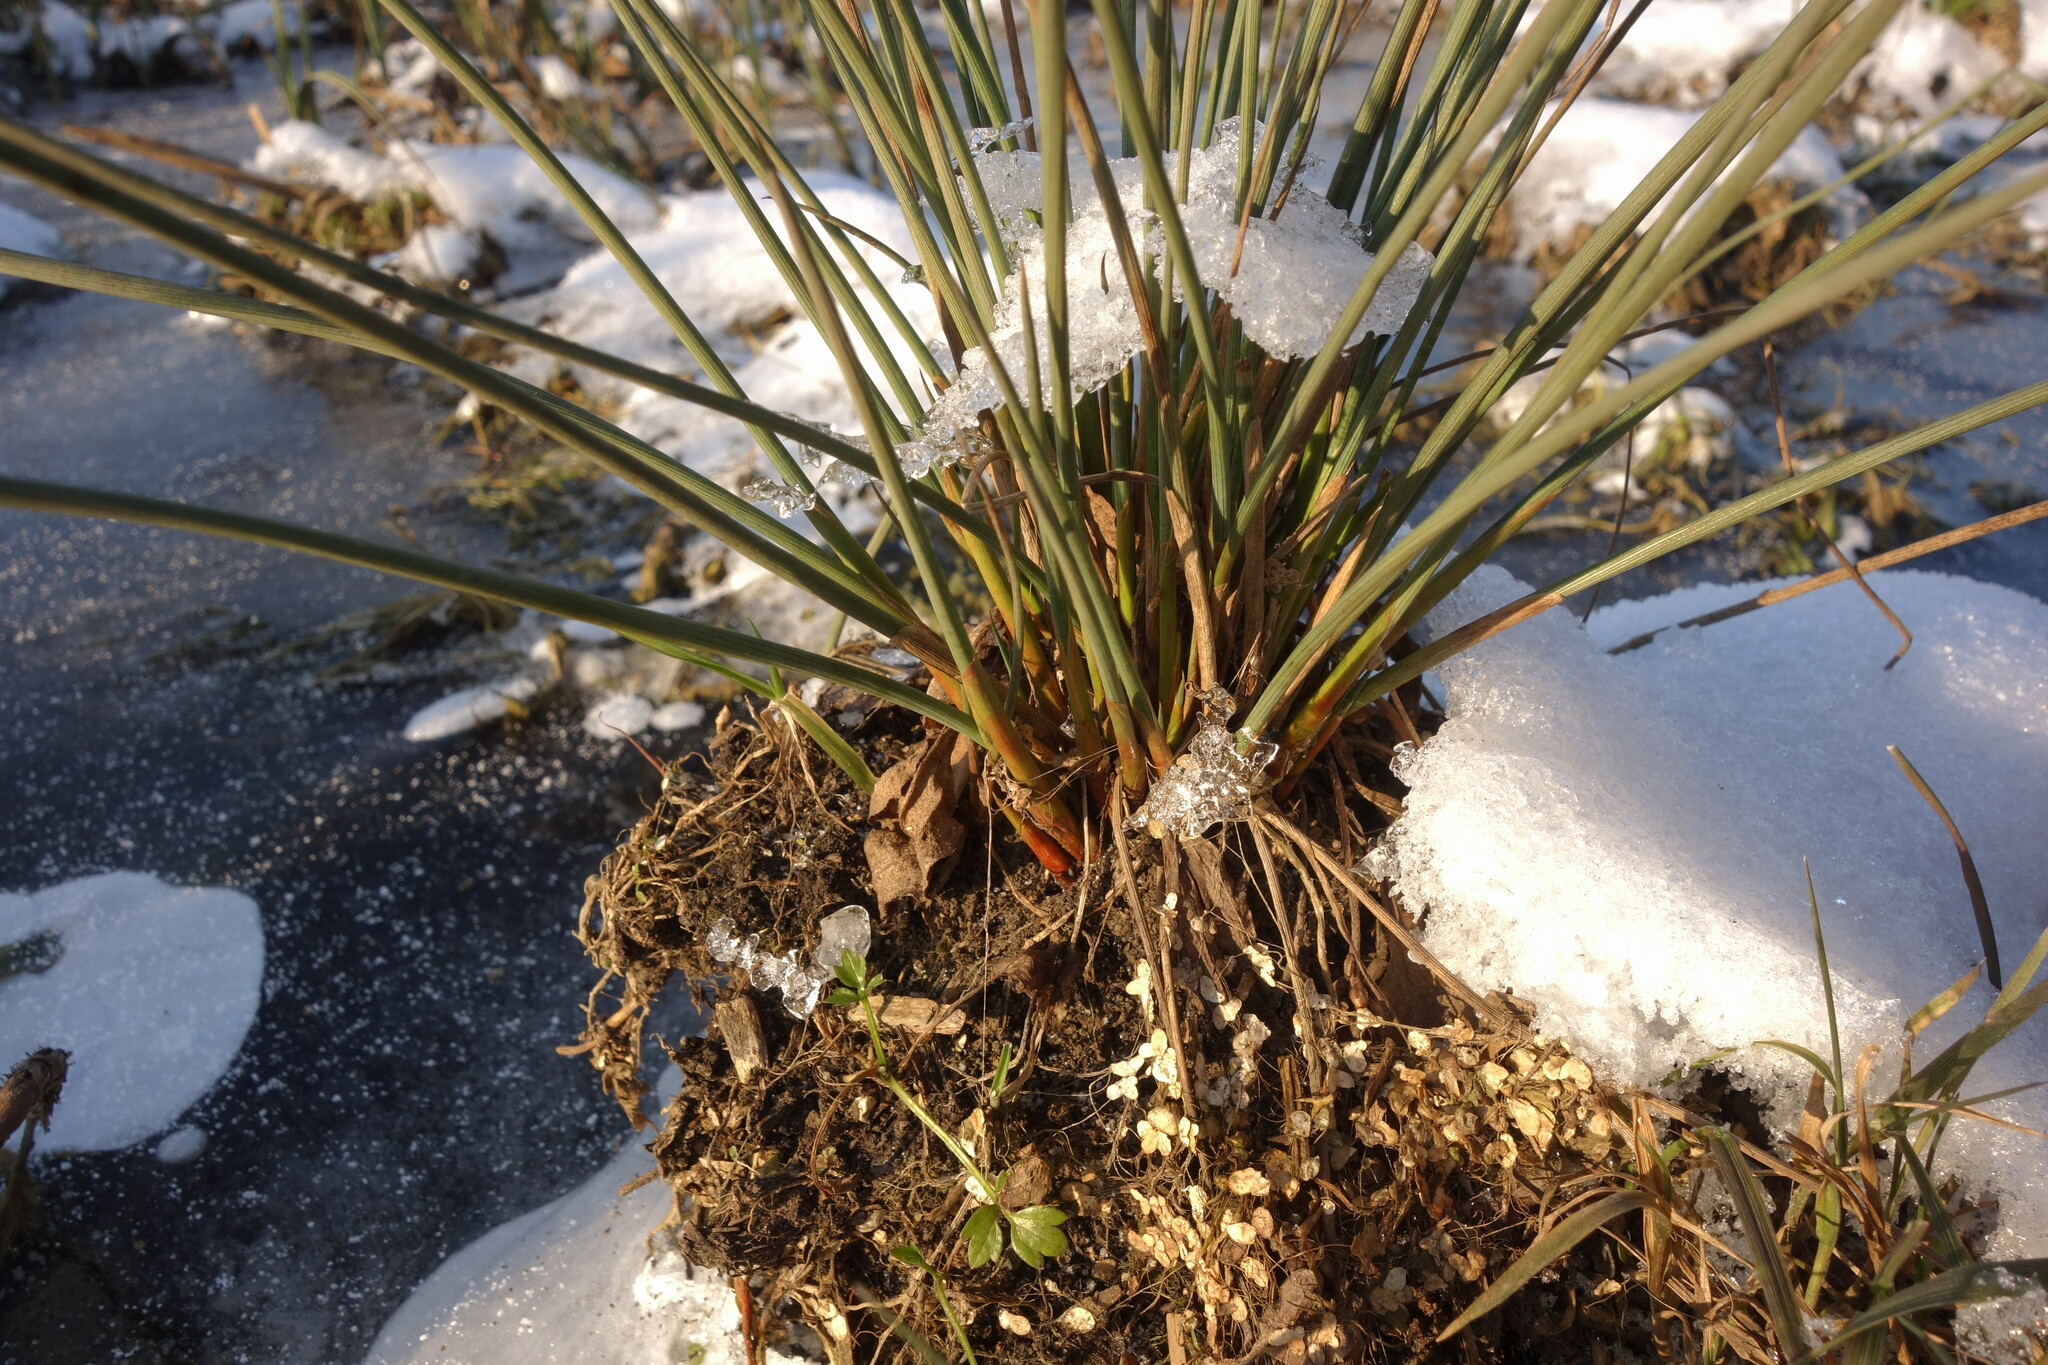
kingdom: Plantae
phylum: Tracheophyta
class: Liliopsida
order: Poales
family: Juncaceae
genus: Juncus
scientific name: Juncus inflexus
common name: Hard rush
